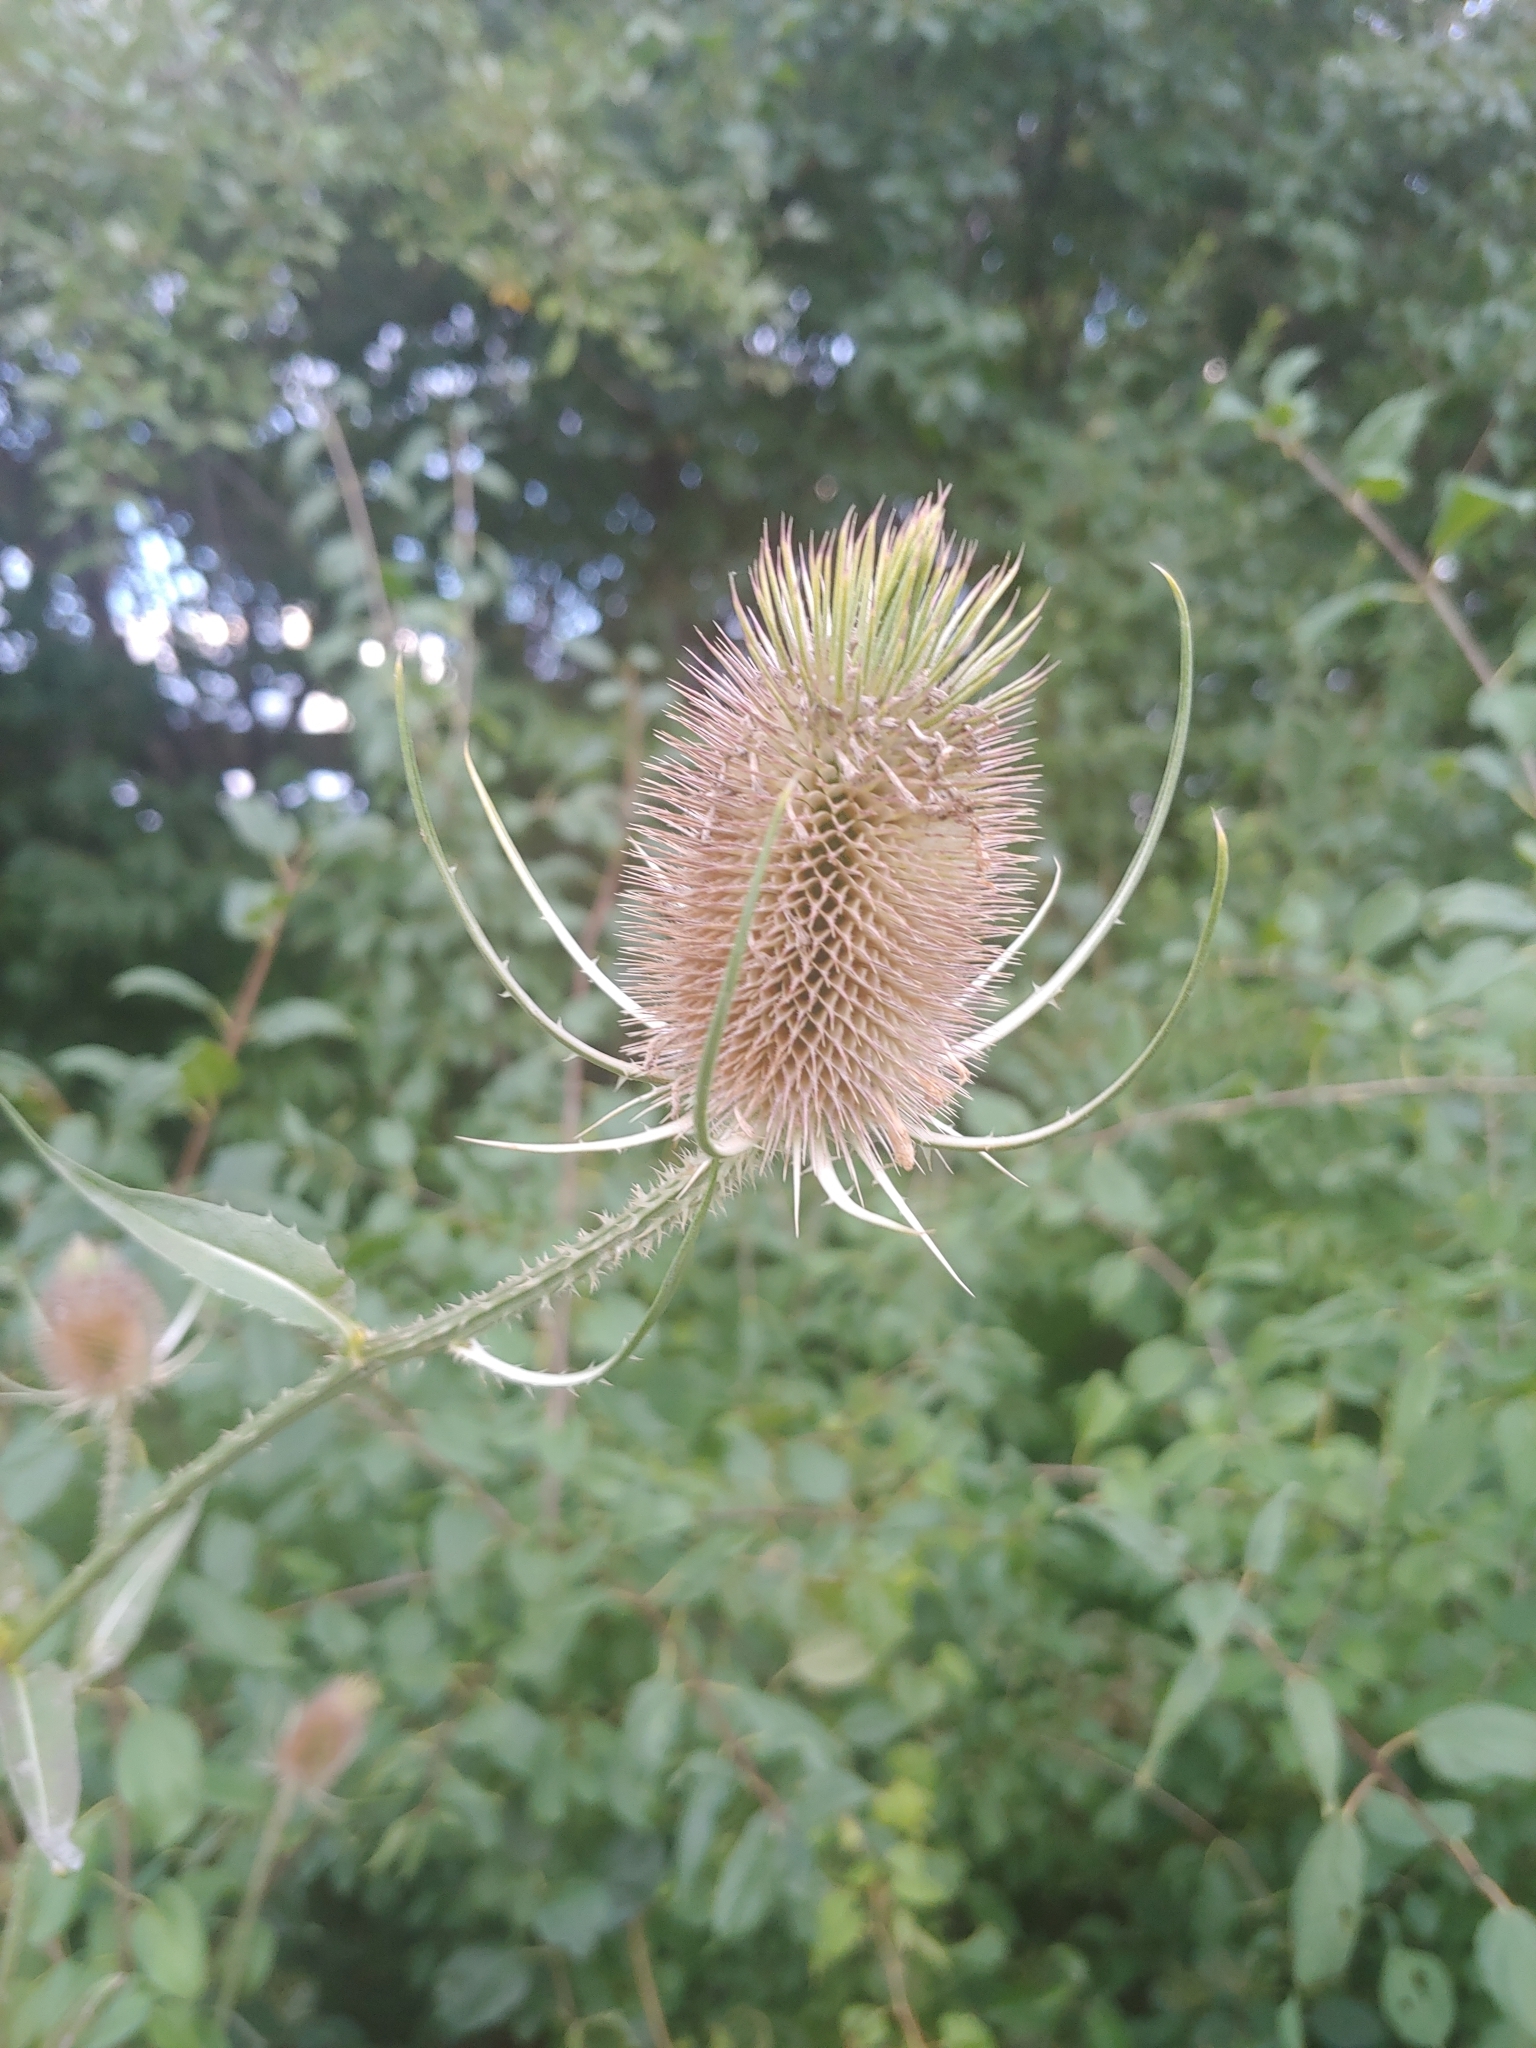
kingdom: Plantae
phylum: Tracheophyta
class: Magnoliopsida
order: Dipsacales
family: Caprifoliaceae
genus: Dipsacus
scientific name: Dipsacus fullonum
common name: Teasel
